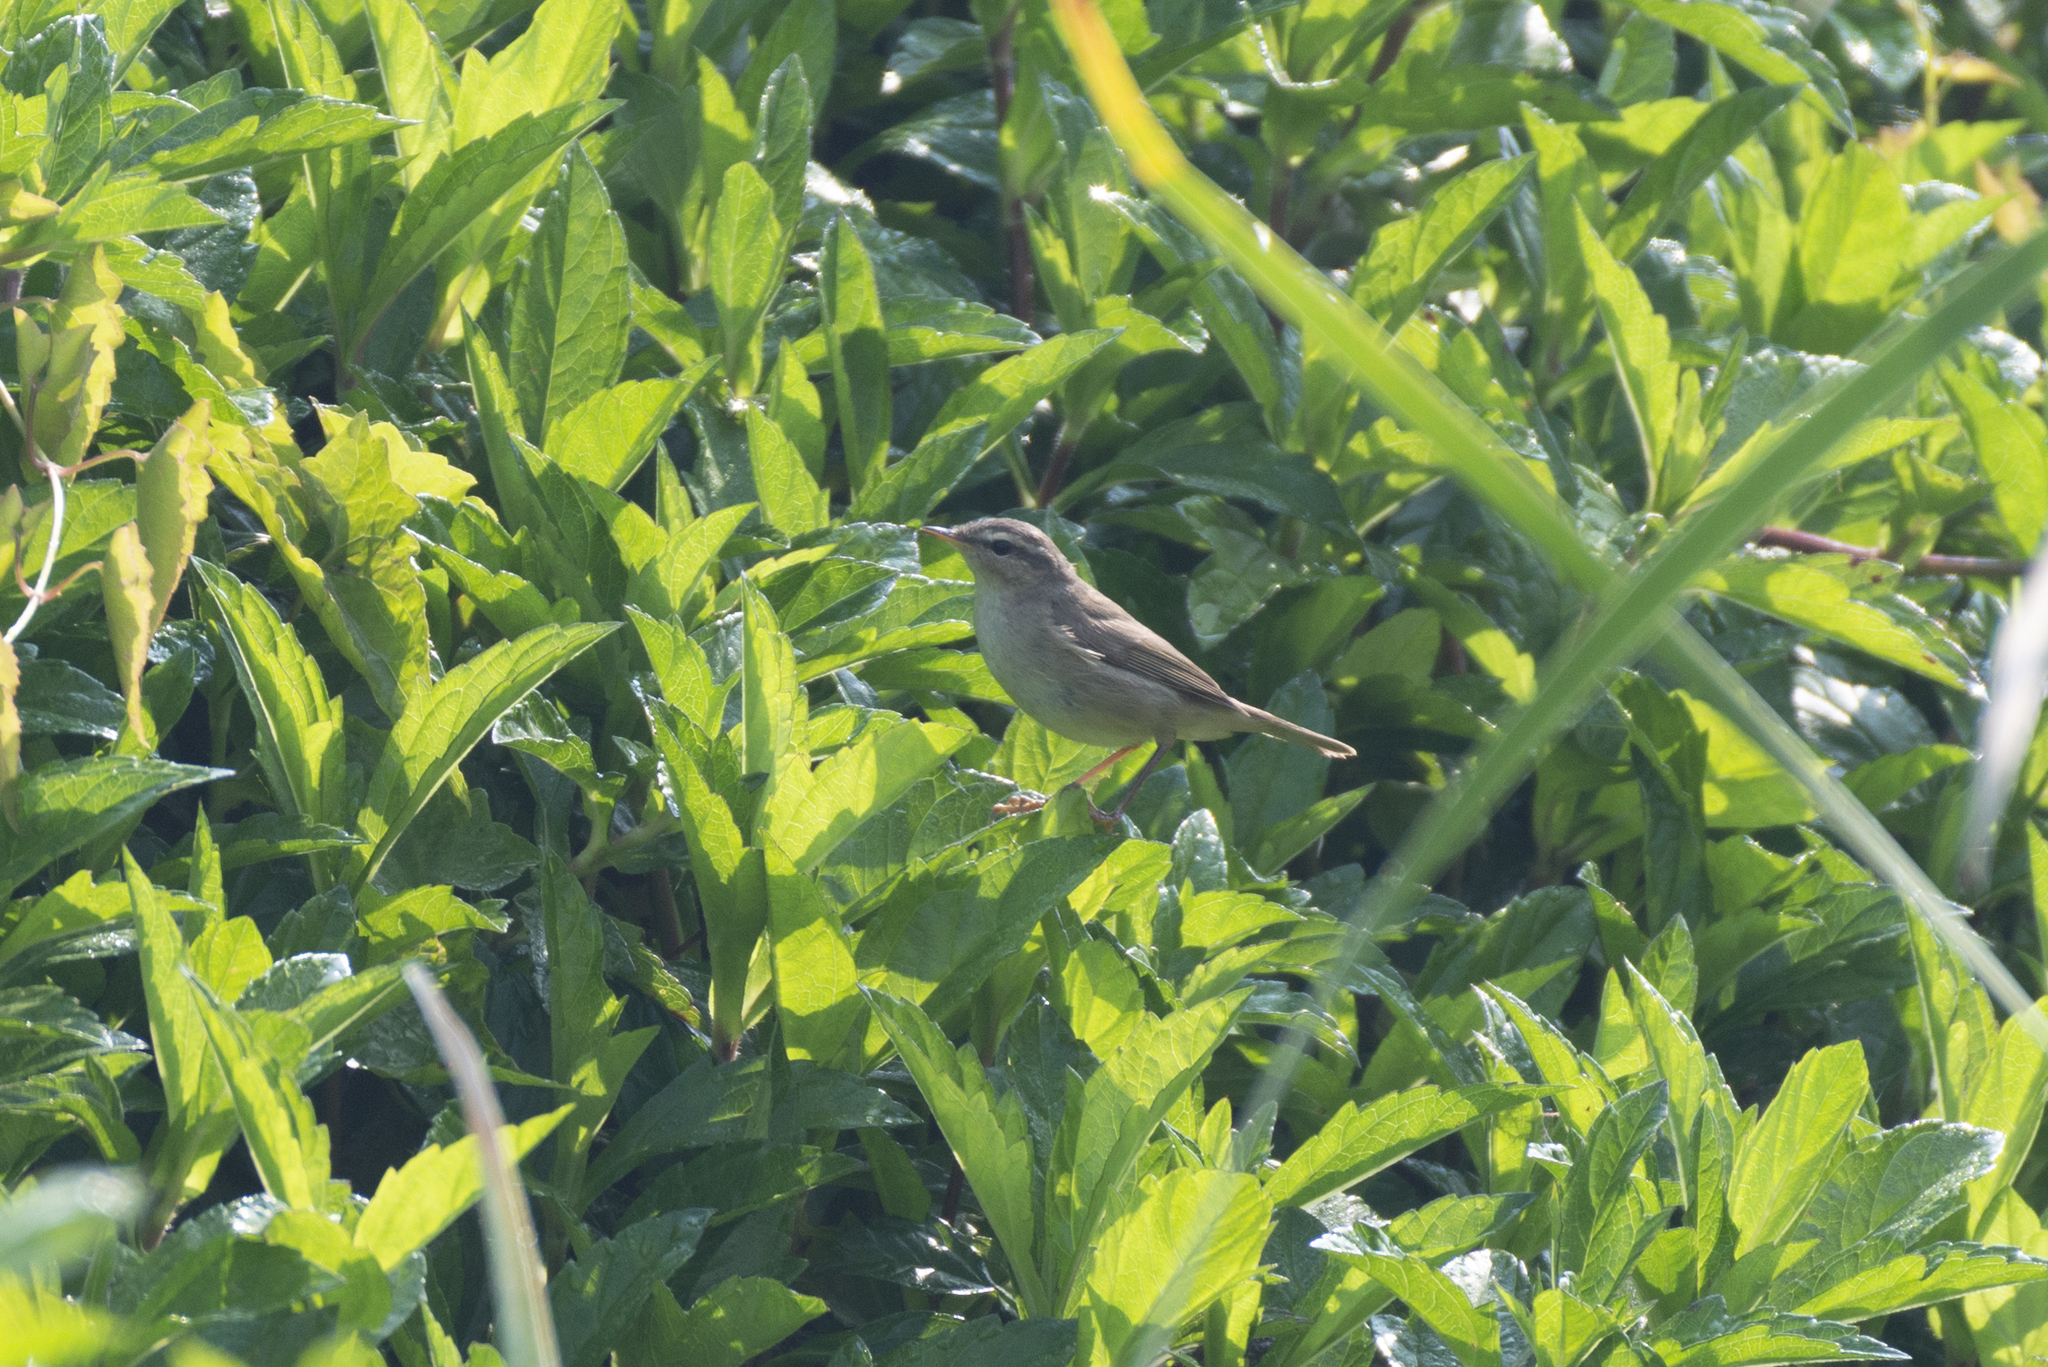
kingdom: Animalia
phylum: Chordata
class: Aves
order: Passeriformes
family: Phylloscopidae
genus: Phylloscopus
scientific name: Phylloscopus fuscatus
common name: Dusky warbler
